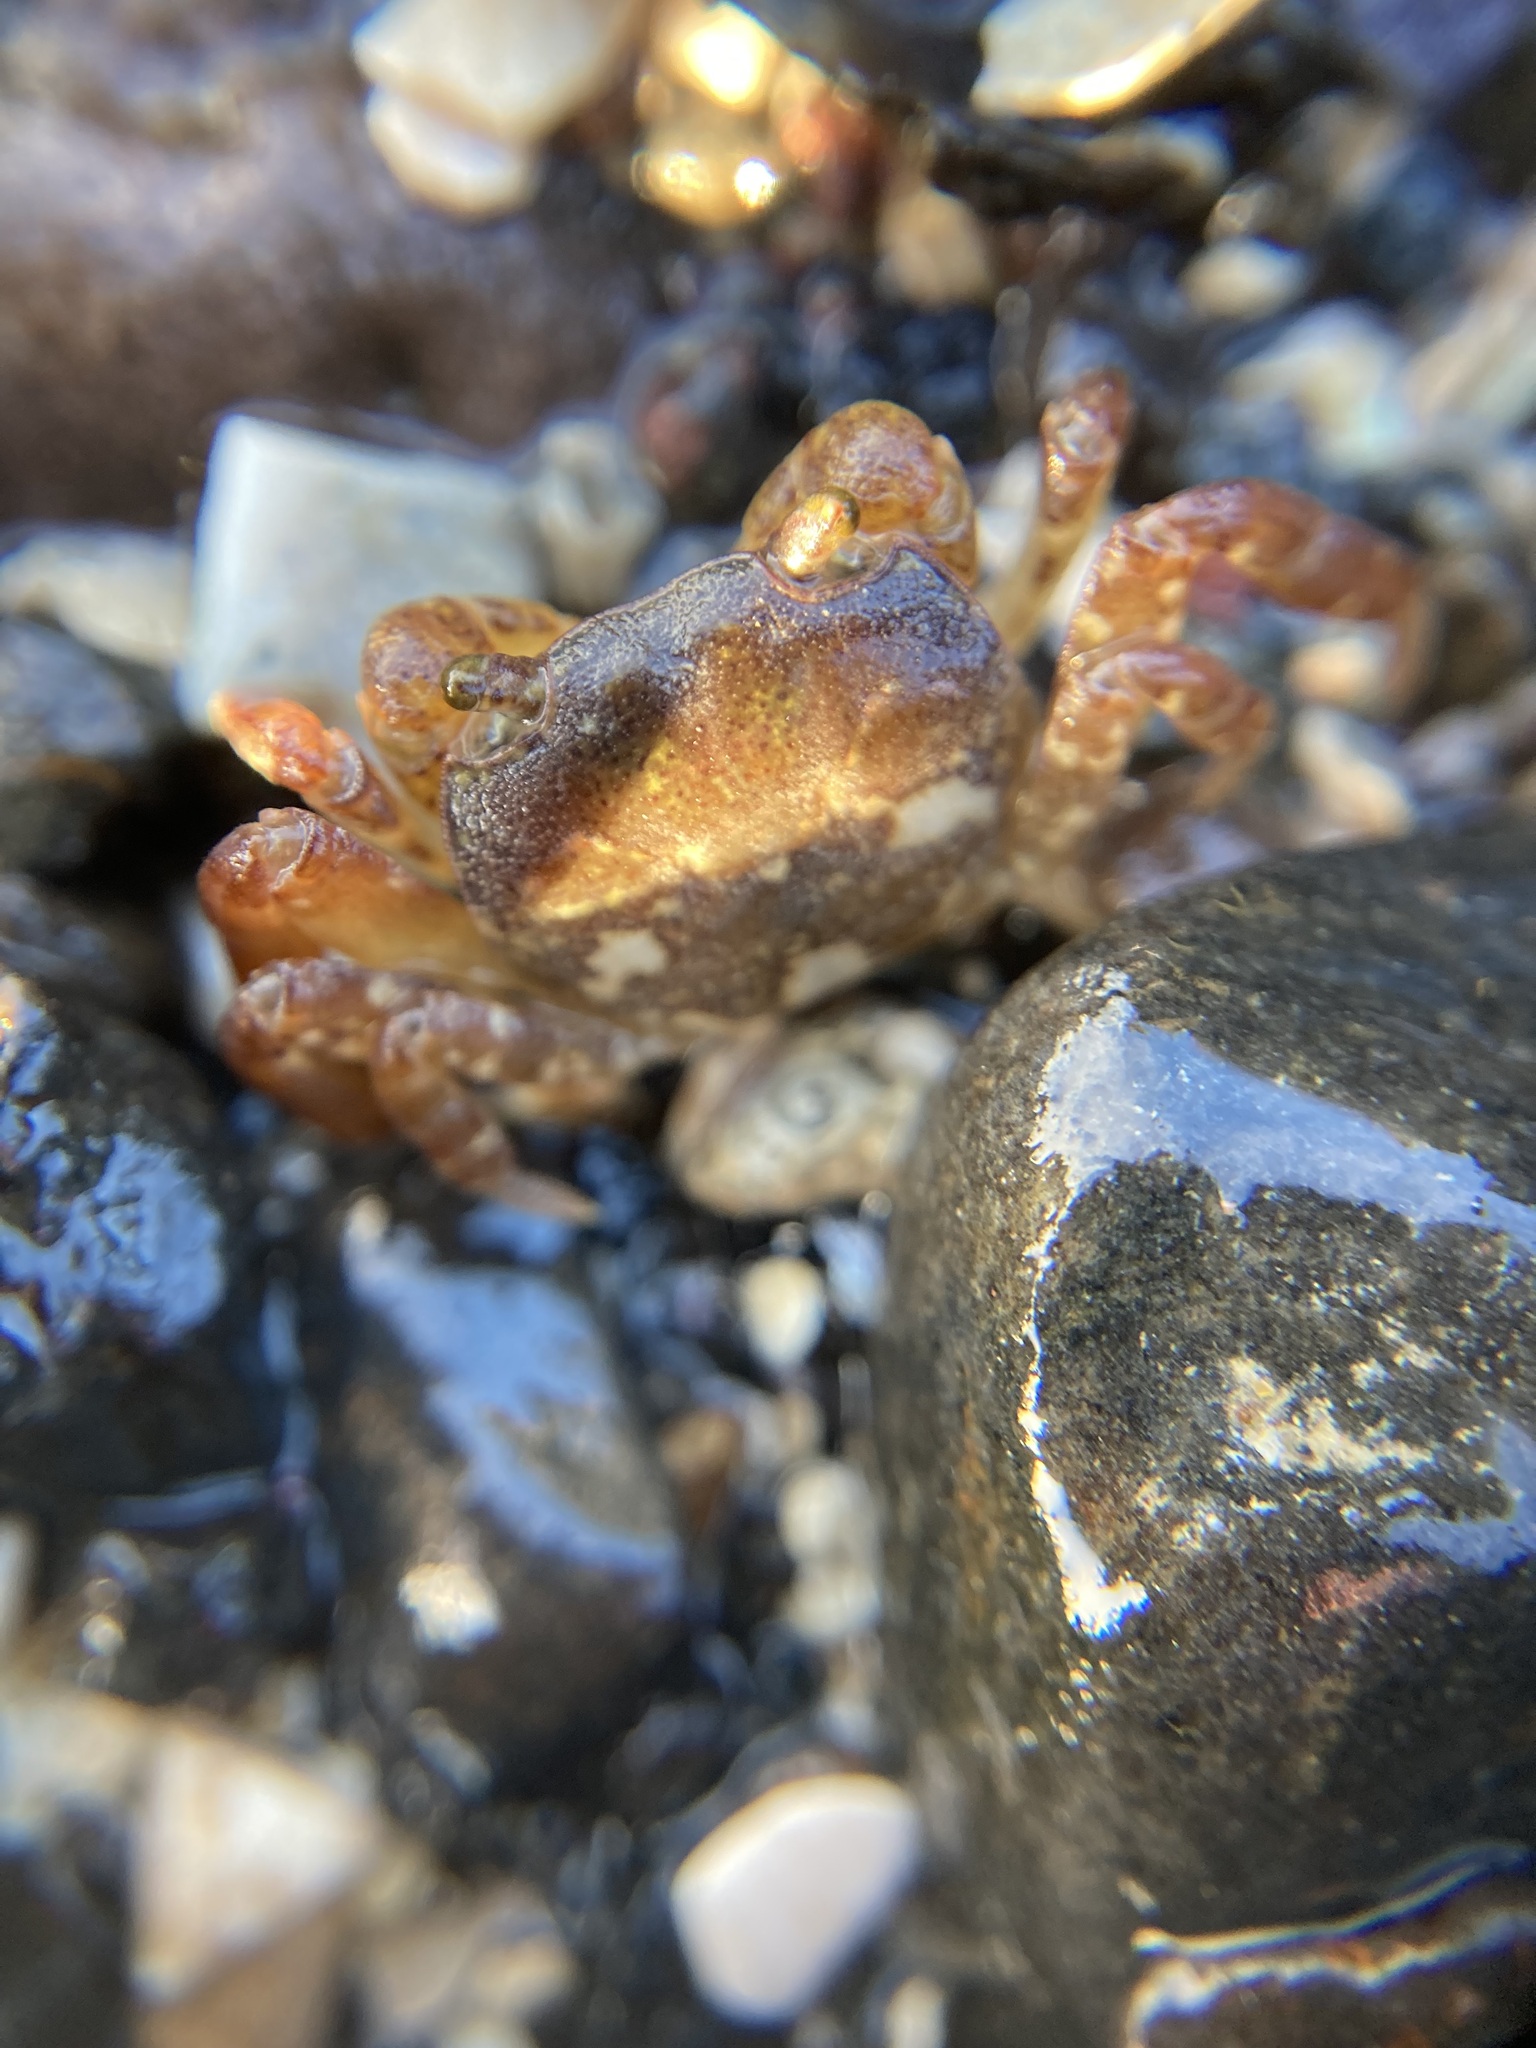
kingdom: Animalia
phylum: Arthropoda
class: Malacostraca
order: Decapoda
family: Varunidae
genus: Cyclograpsus
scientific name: Cyclograpsus lavauxi
